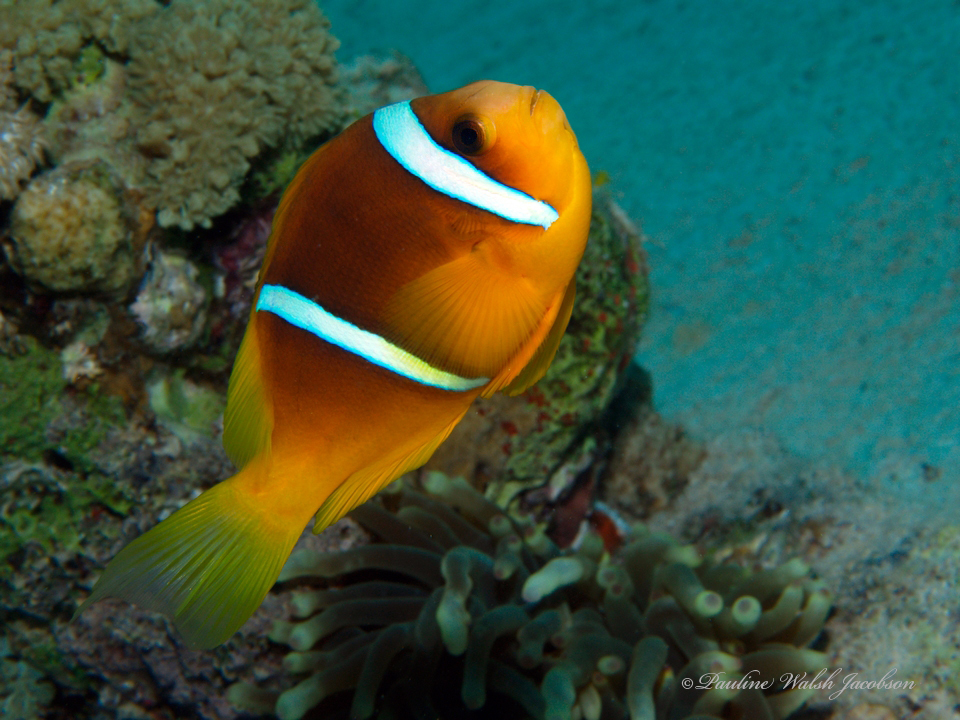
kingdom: Animalia
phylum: Chordata
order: Perciformes
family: Pomacentridae
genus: Amphiprion
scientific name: Amphiprion bicinctus
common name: Two-banded anemonefish
